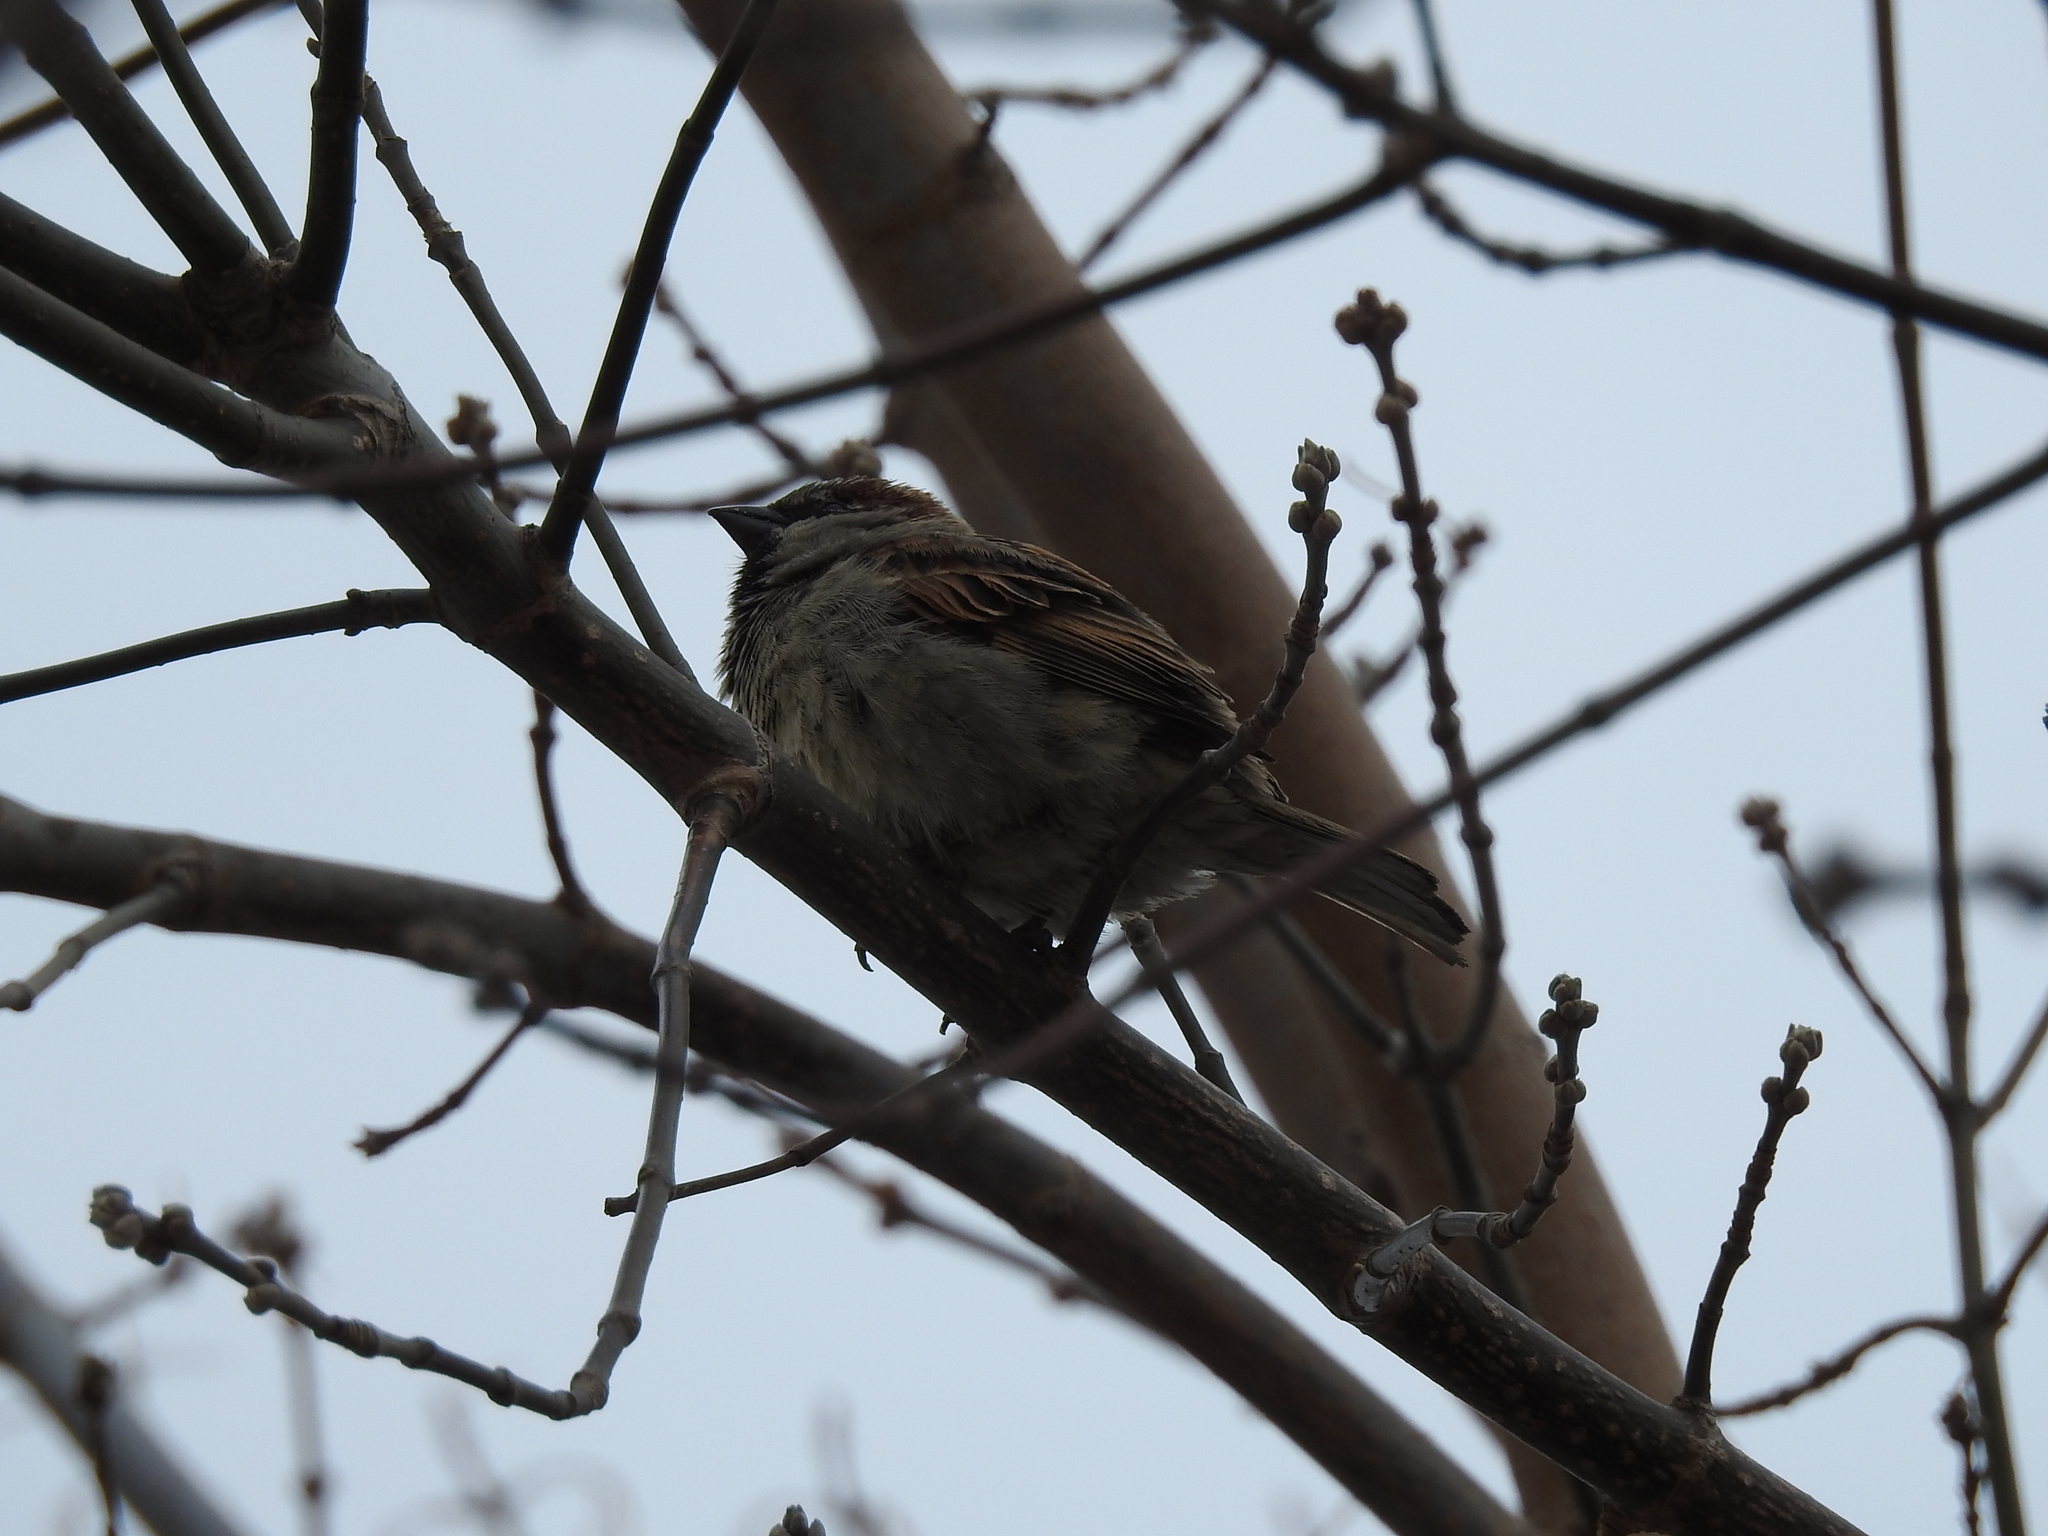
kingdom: Animalia
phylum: Chordata
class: Aves
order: Passeriformes
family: Passeridae
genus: Passer
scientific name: Passer domesticus
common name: House sparrow
